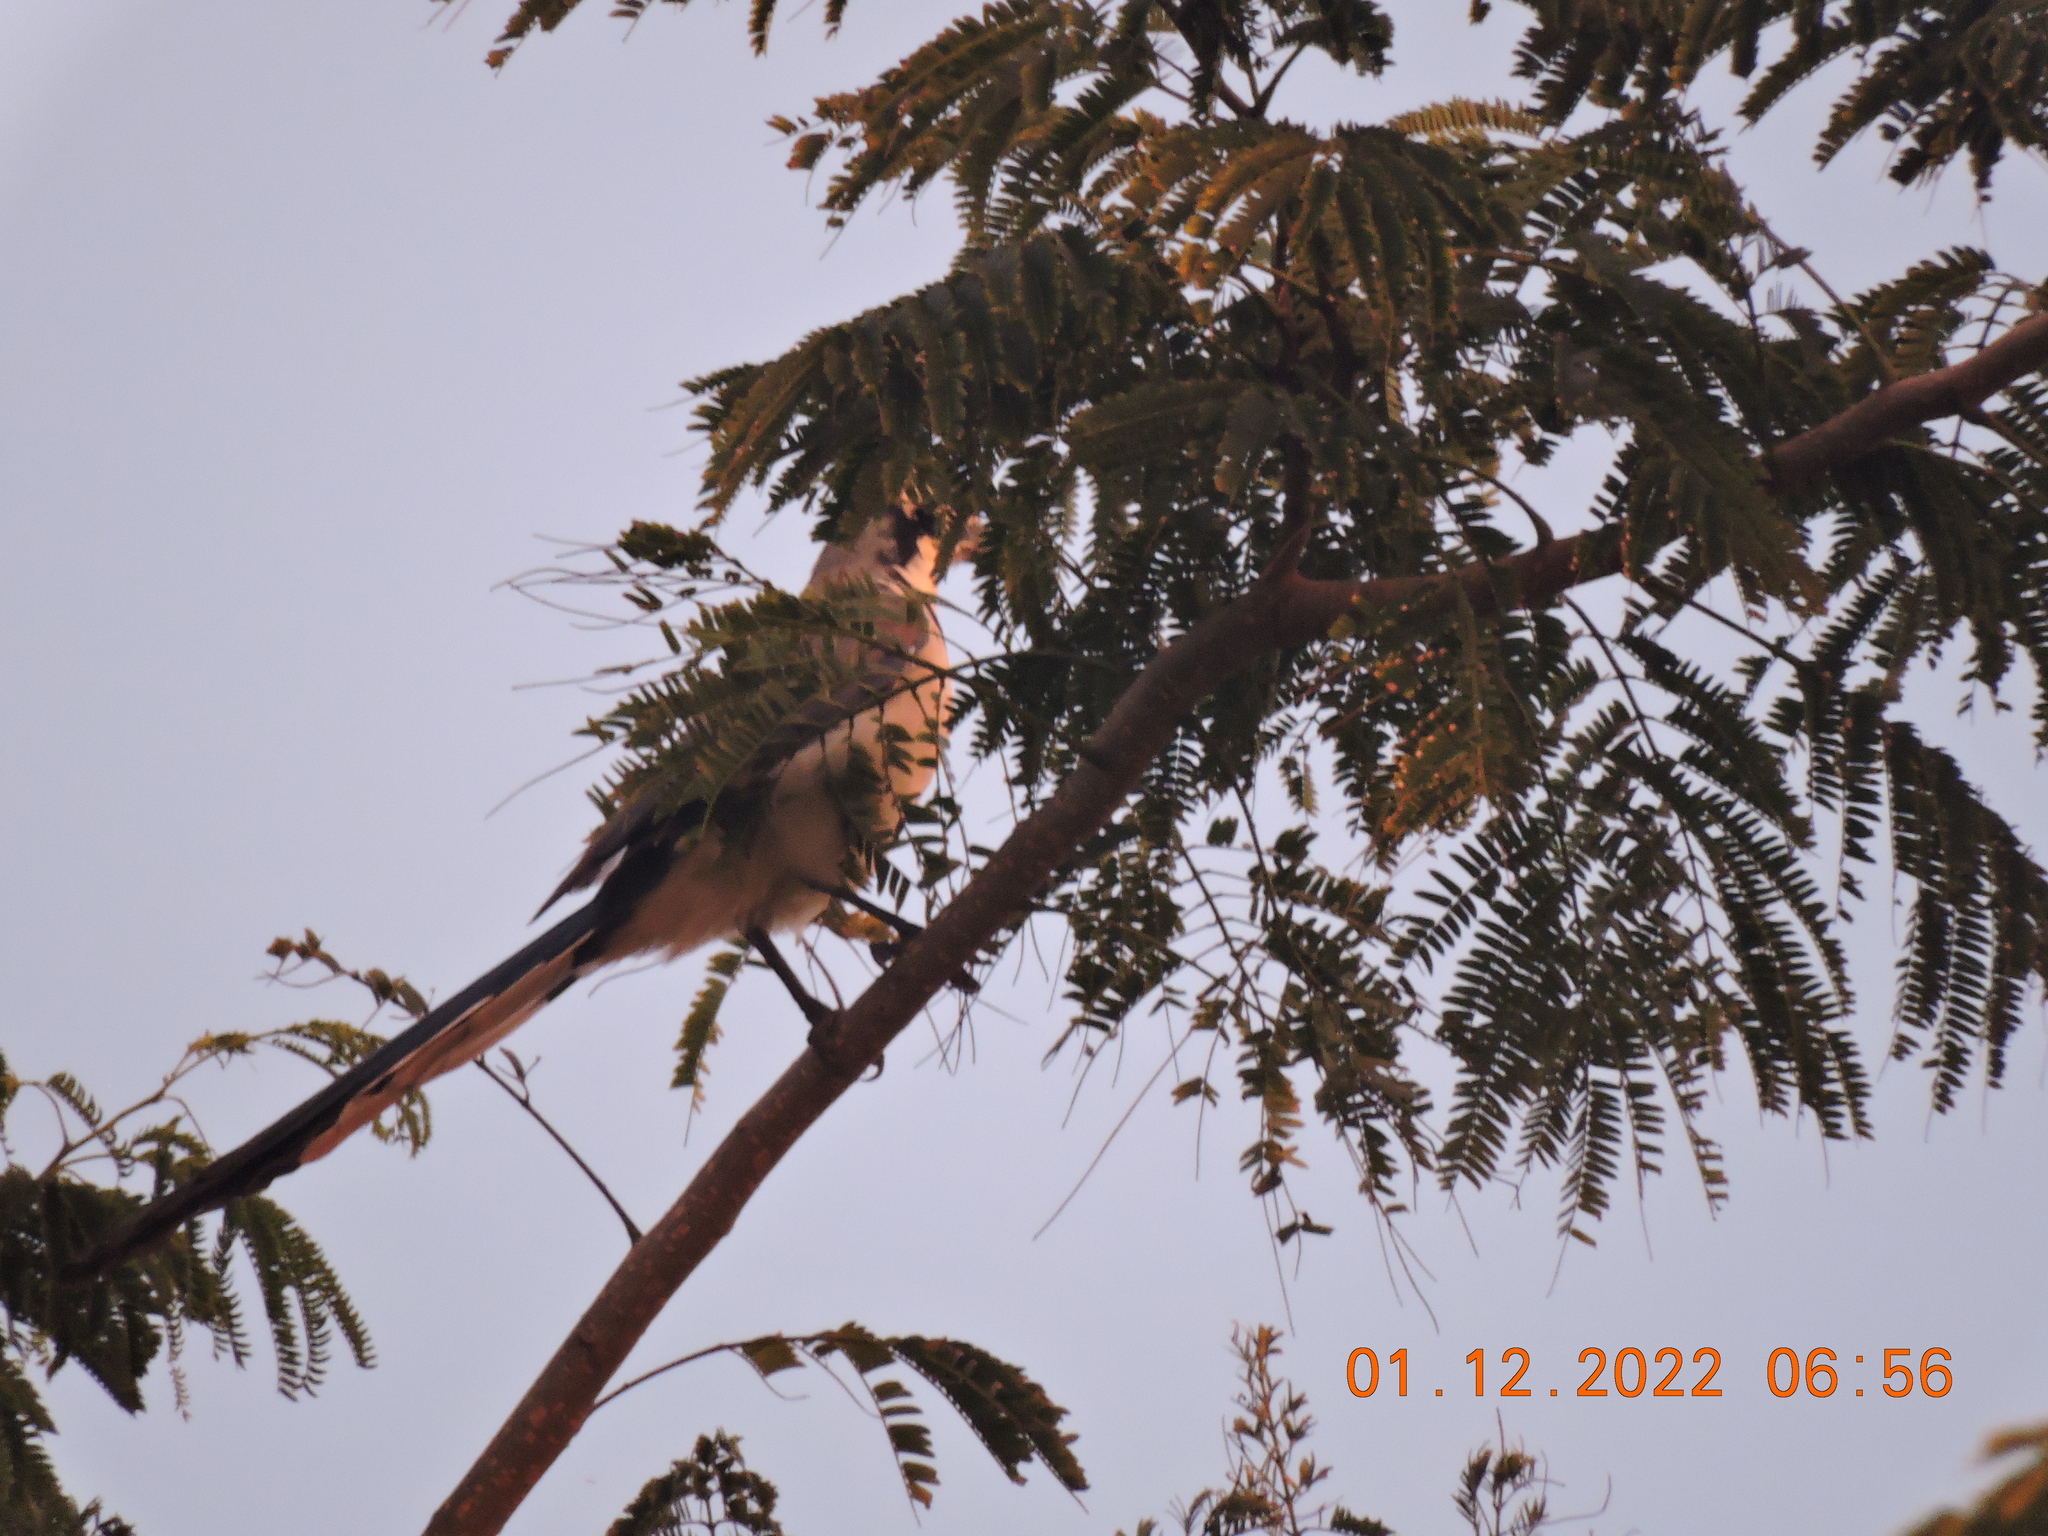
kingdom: Animalia
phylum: Chordata
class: Aves
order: Passeriformes
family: Corvidae
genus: Calocitta
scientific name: Calocitta formosa
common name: White-throated magpie-jay
